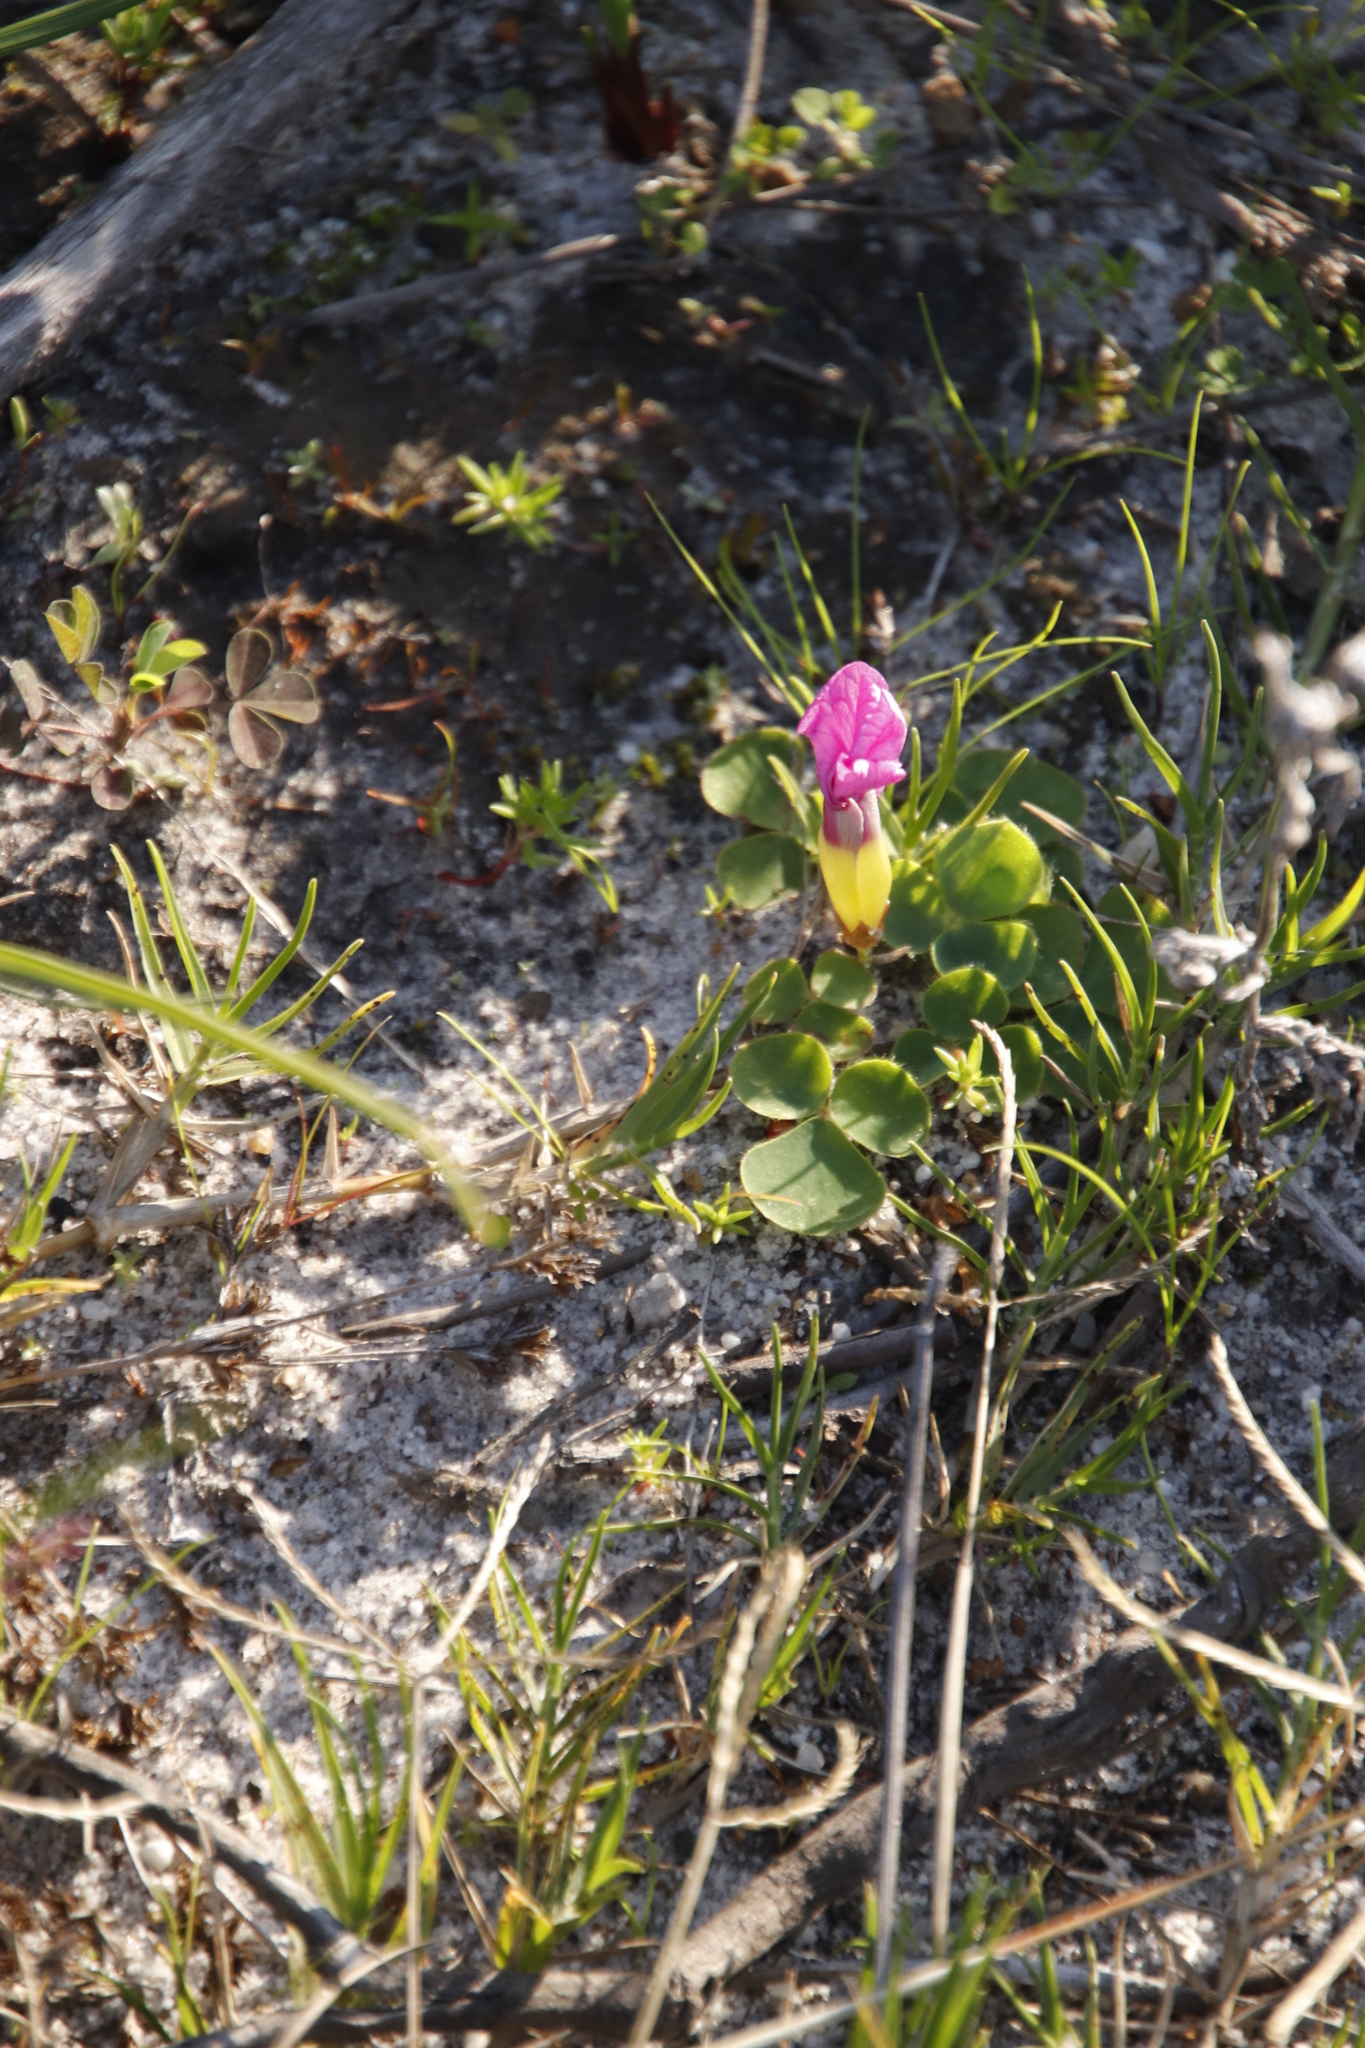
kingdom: Plantae
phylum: Tracheophyta
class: Magnoliopsida
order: Oxalidales
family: Oxalidaceae
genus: Oxalis
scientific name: Oxalis purpurea
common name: Purple woodsorrel
